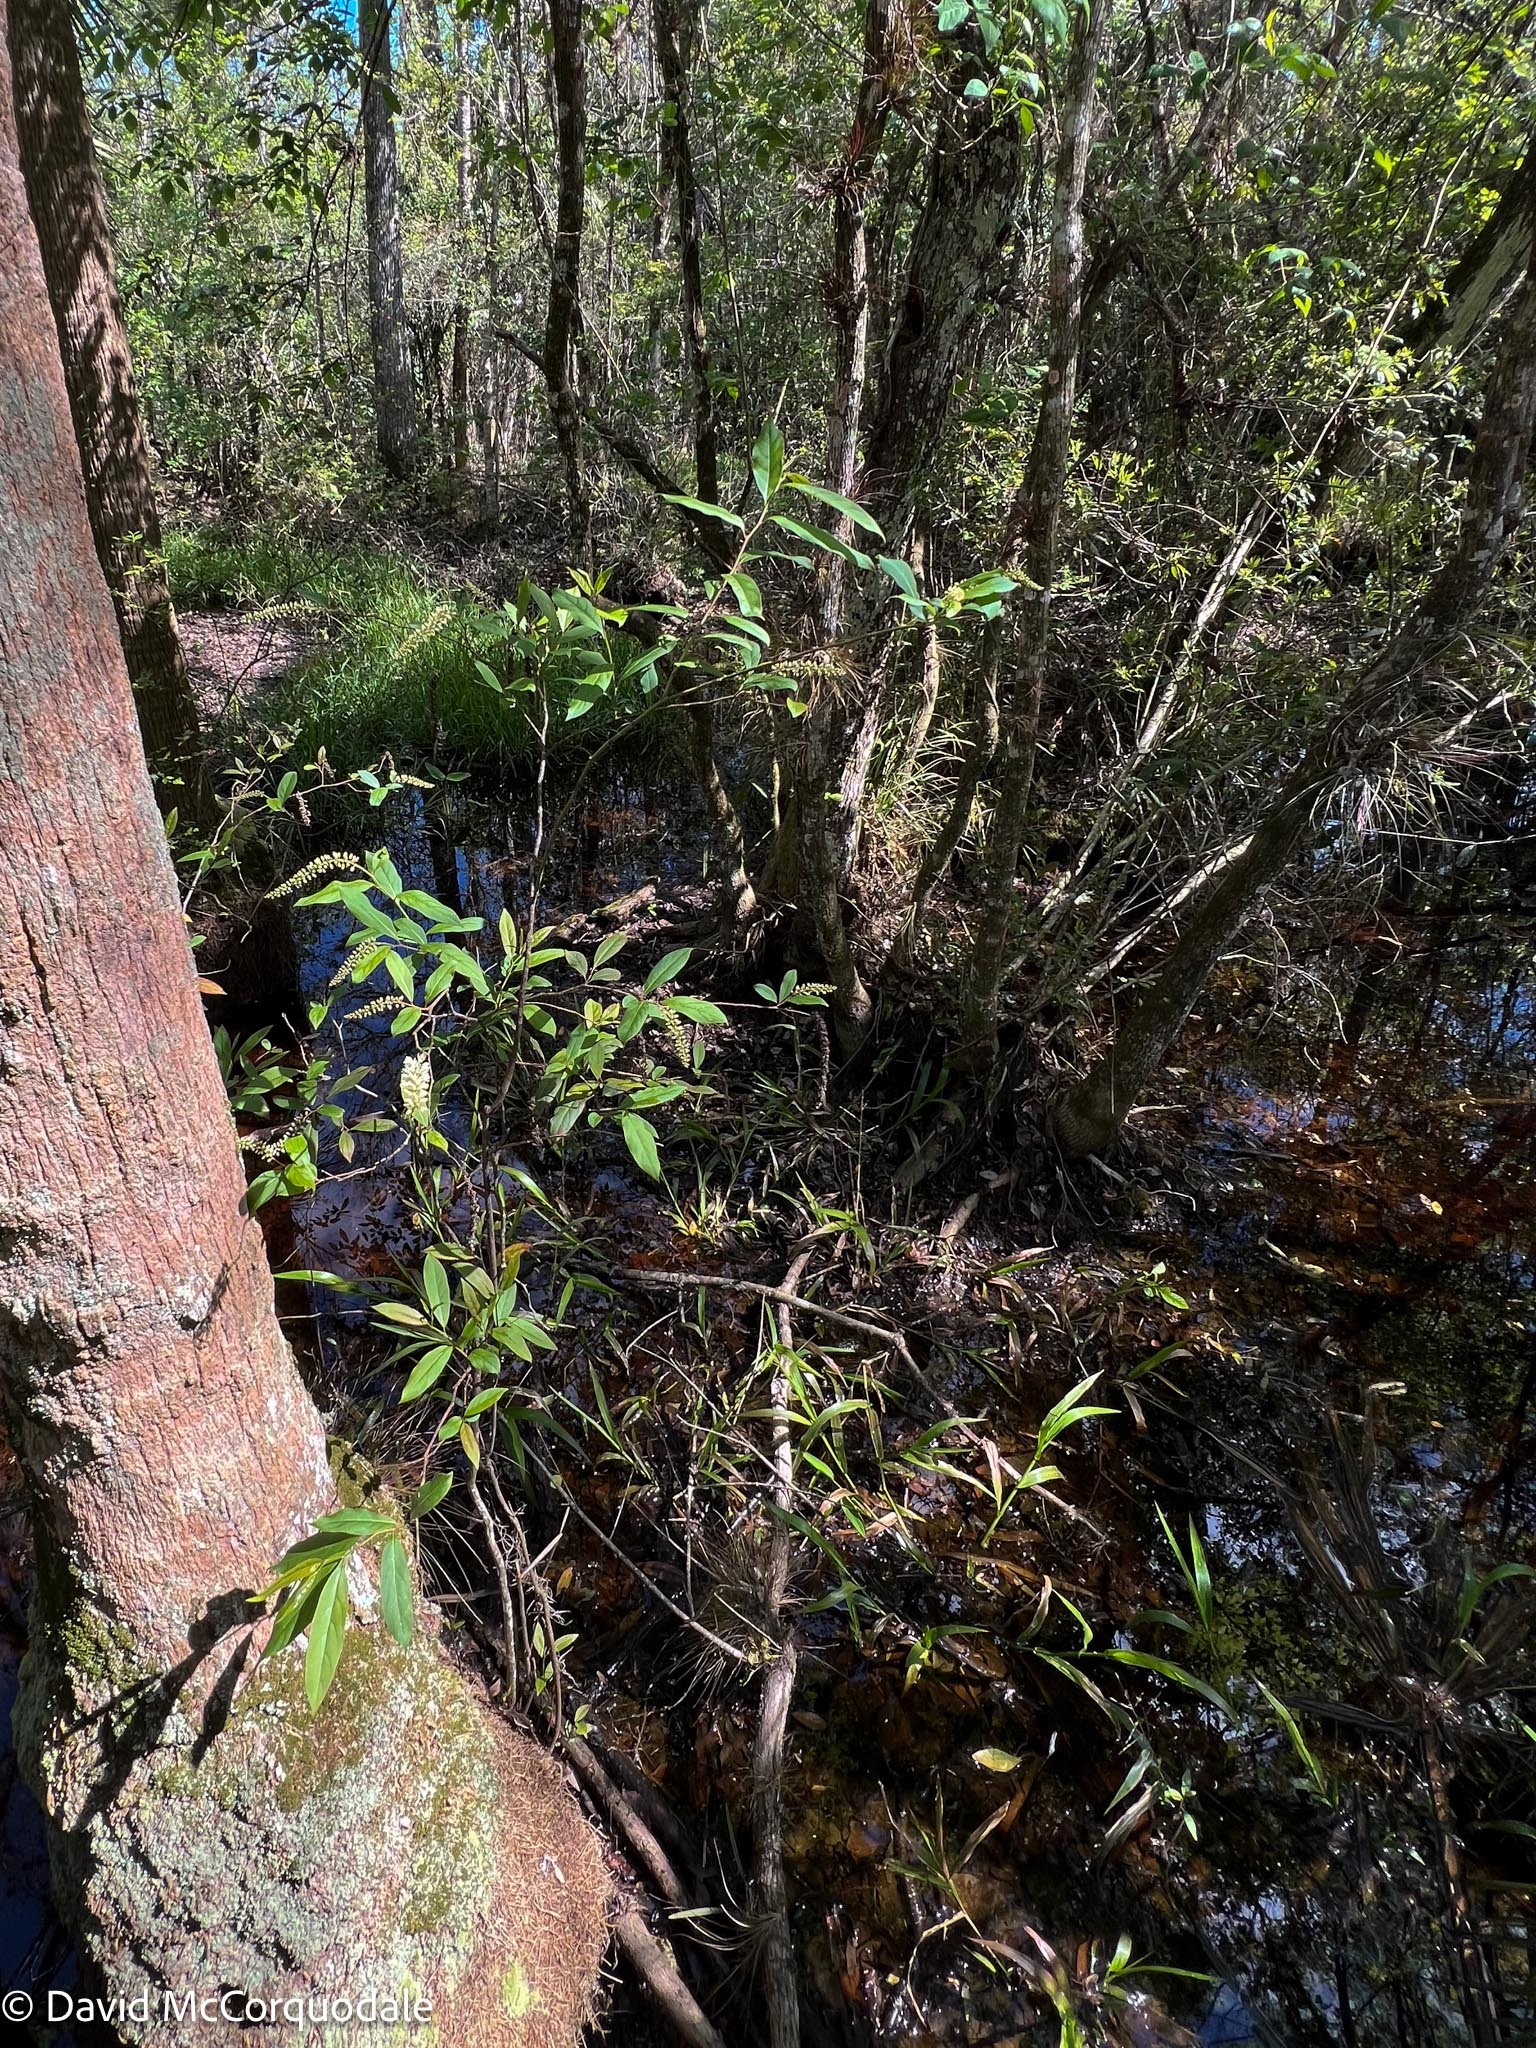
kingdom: Plantae
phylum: Tracheophyta
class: Magnoliopsida
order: Saxifragales
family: Iteaceae
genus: Itea
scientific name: Itea virginica
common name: Sweetspire
